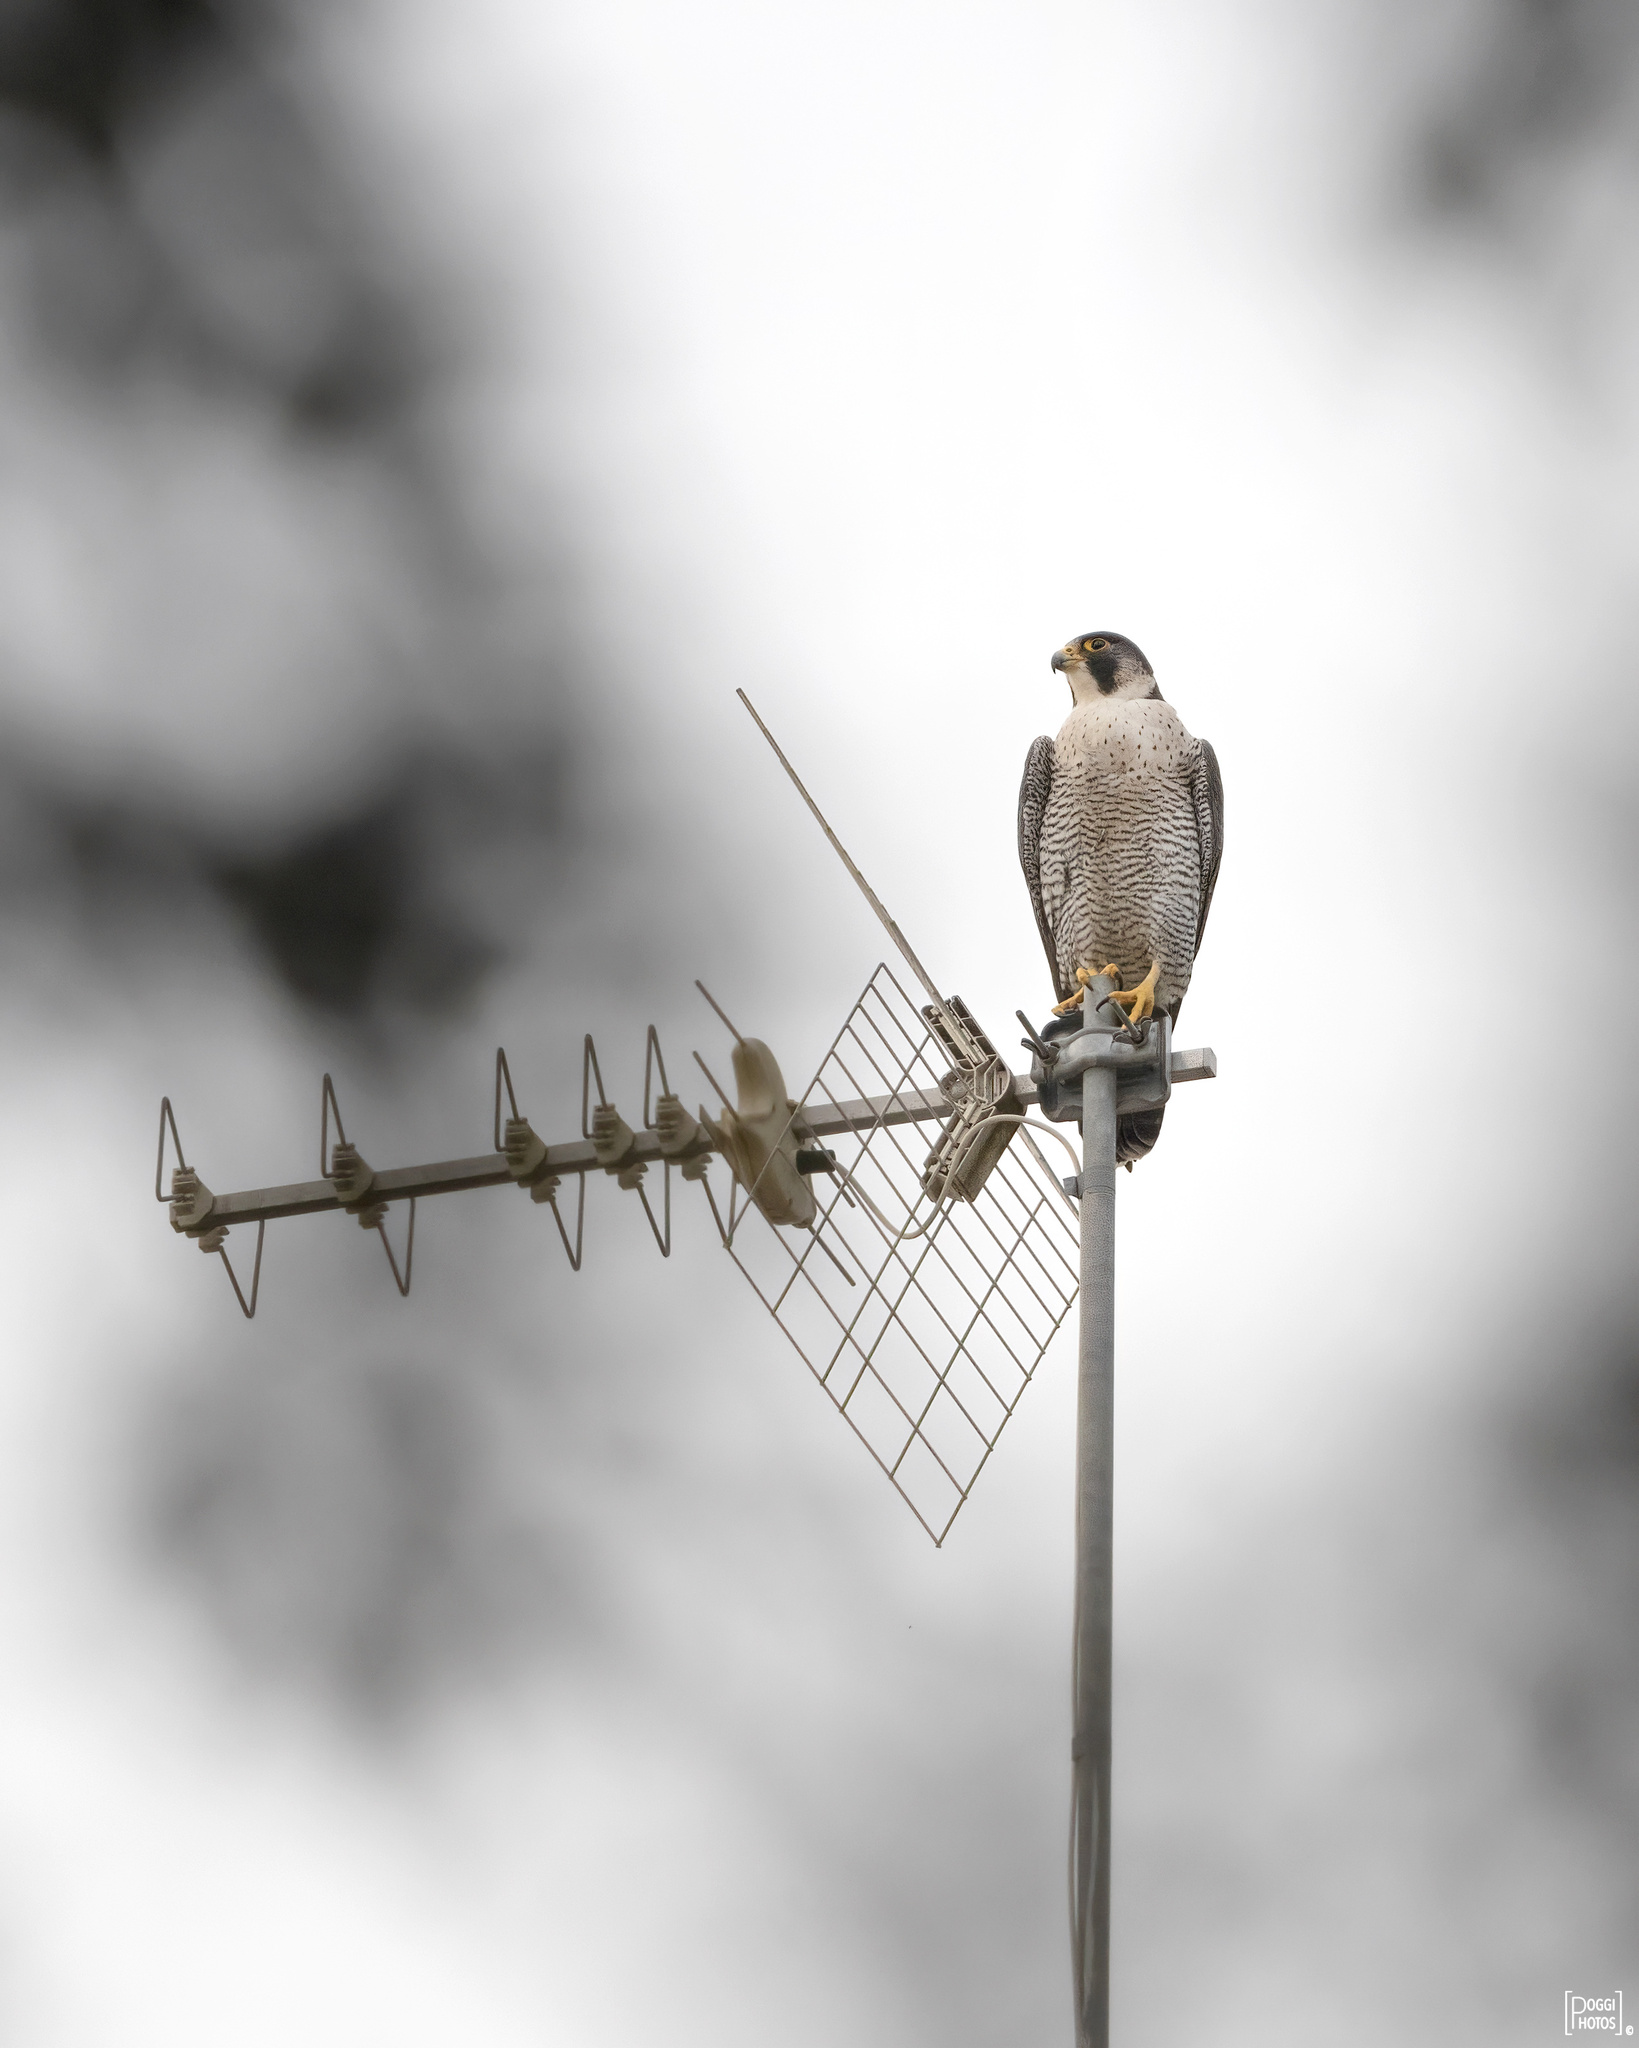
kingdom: Animalia
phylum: Chordata
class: Aves
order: Falconiformes
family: Falconidae
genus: Falco
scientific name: Falco peregrinus
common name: Peregrine falcon
